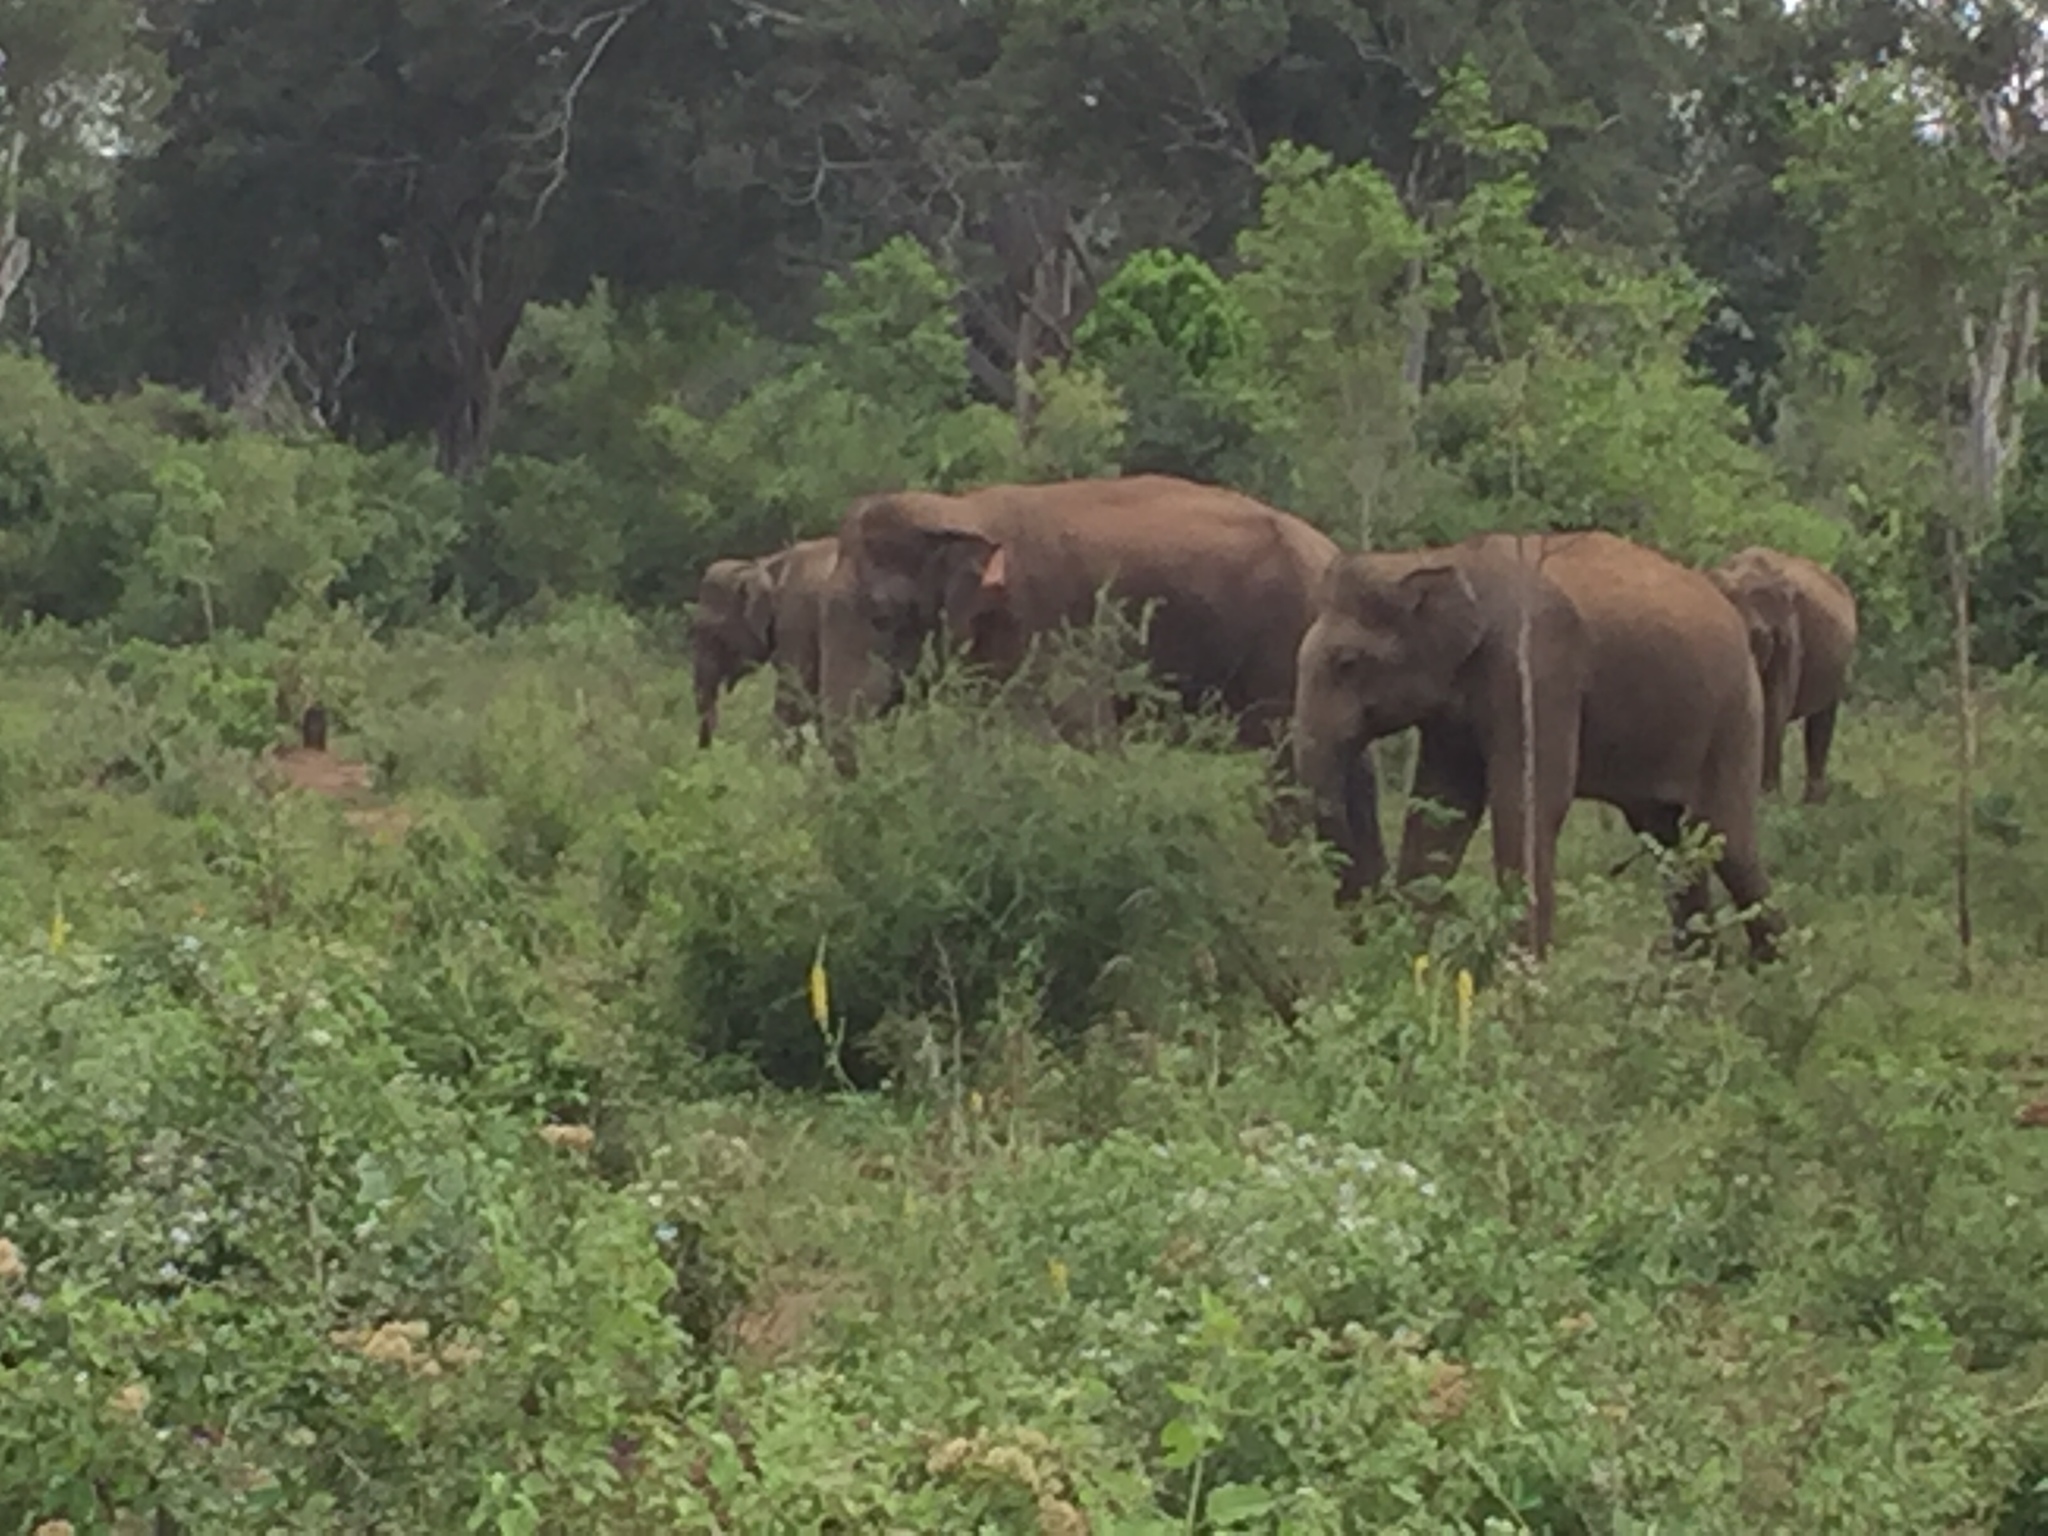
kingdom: Animalia
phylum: Chordata
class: Mammalia
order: Proboscidea
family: Elephantidae
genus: Elephas
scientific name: Elephas maximus
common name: Asian elephant
